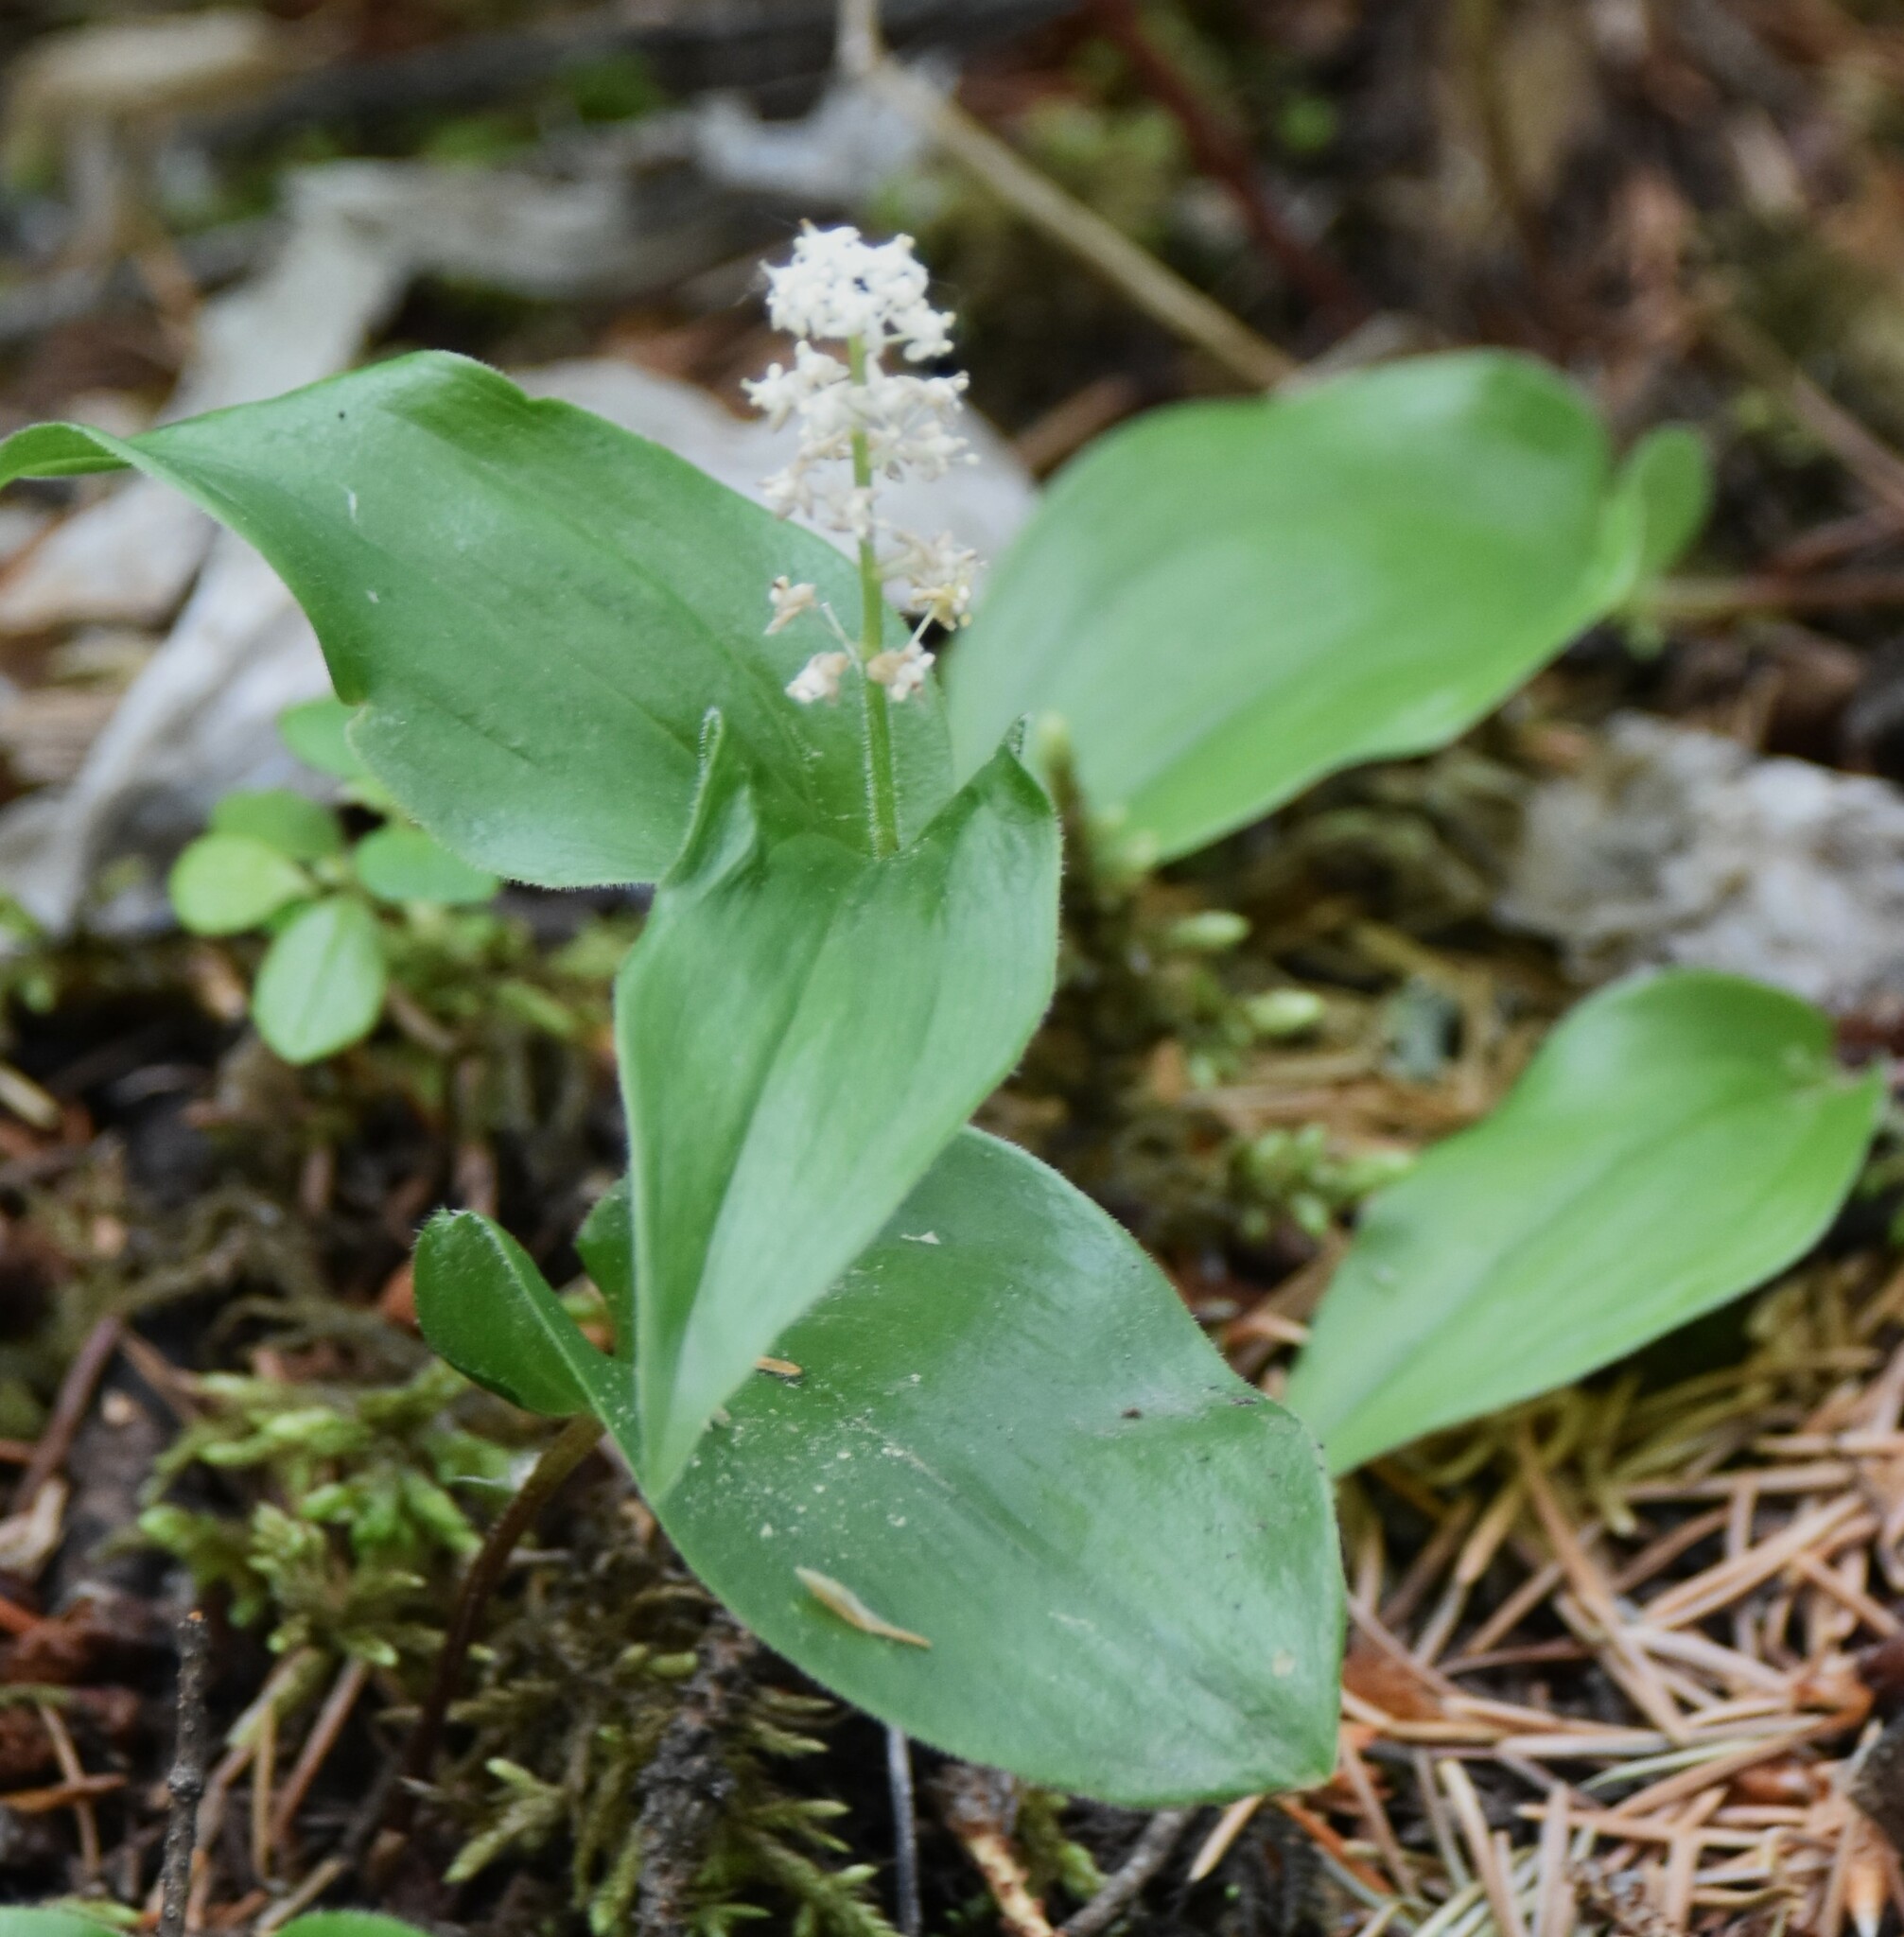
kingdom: Plantae
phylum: Tracheophyta
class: Liliopsida
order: Asparagales
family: Asparagaceae
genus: Maianthemum
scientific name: Maianthemum canadense
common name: False lily-of-the-valley
